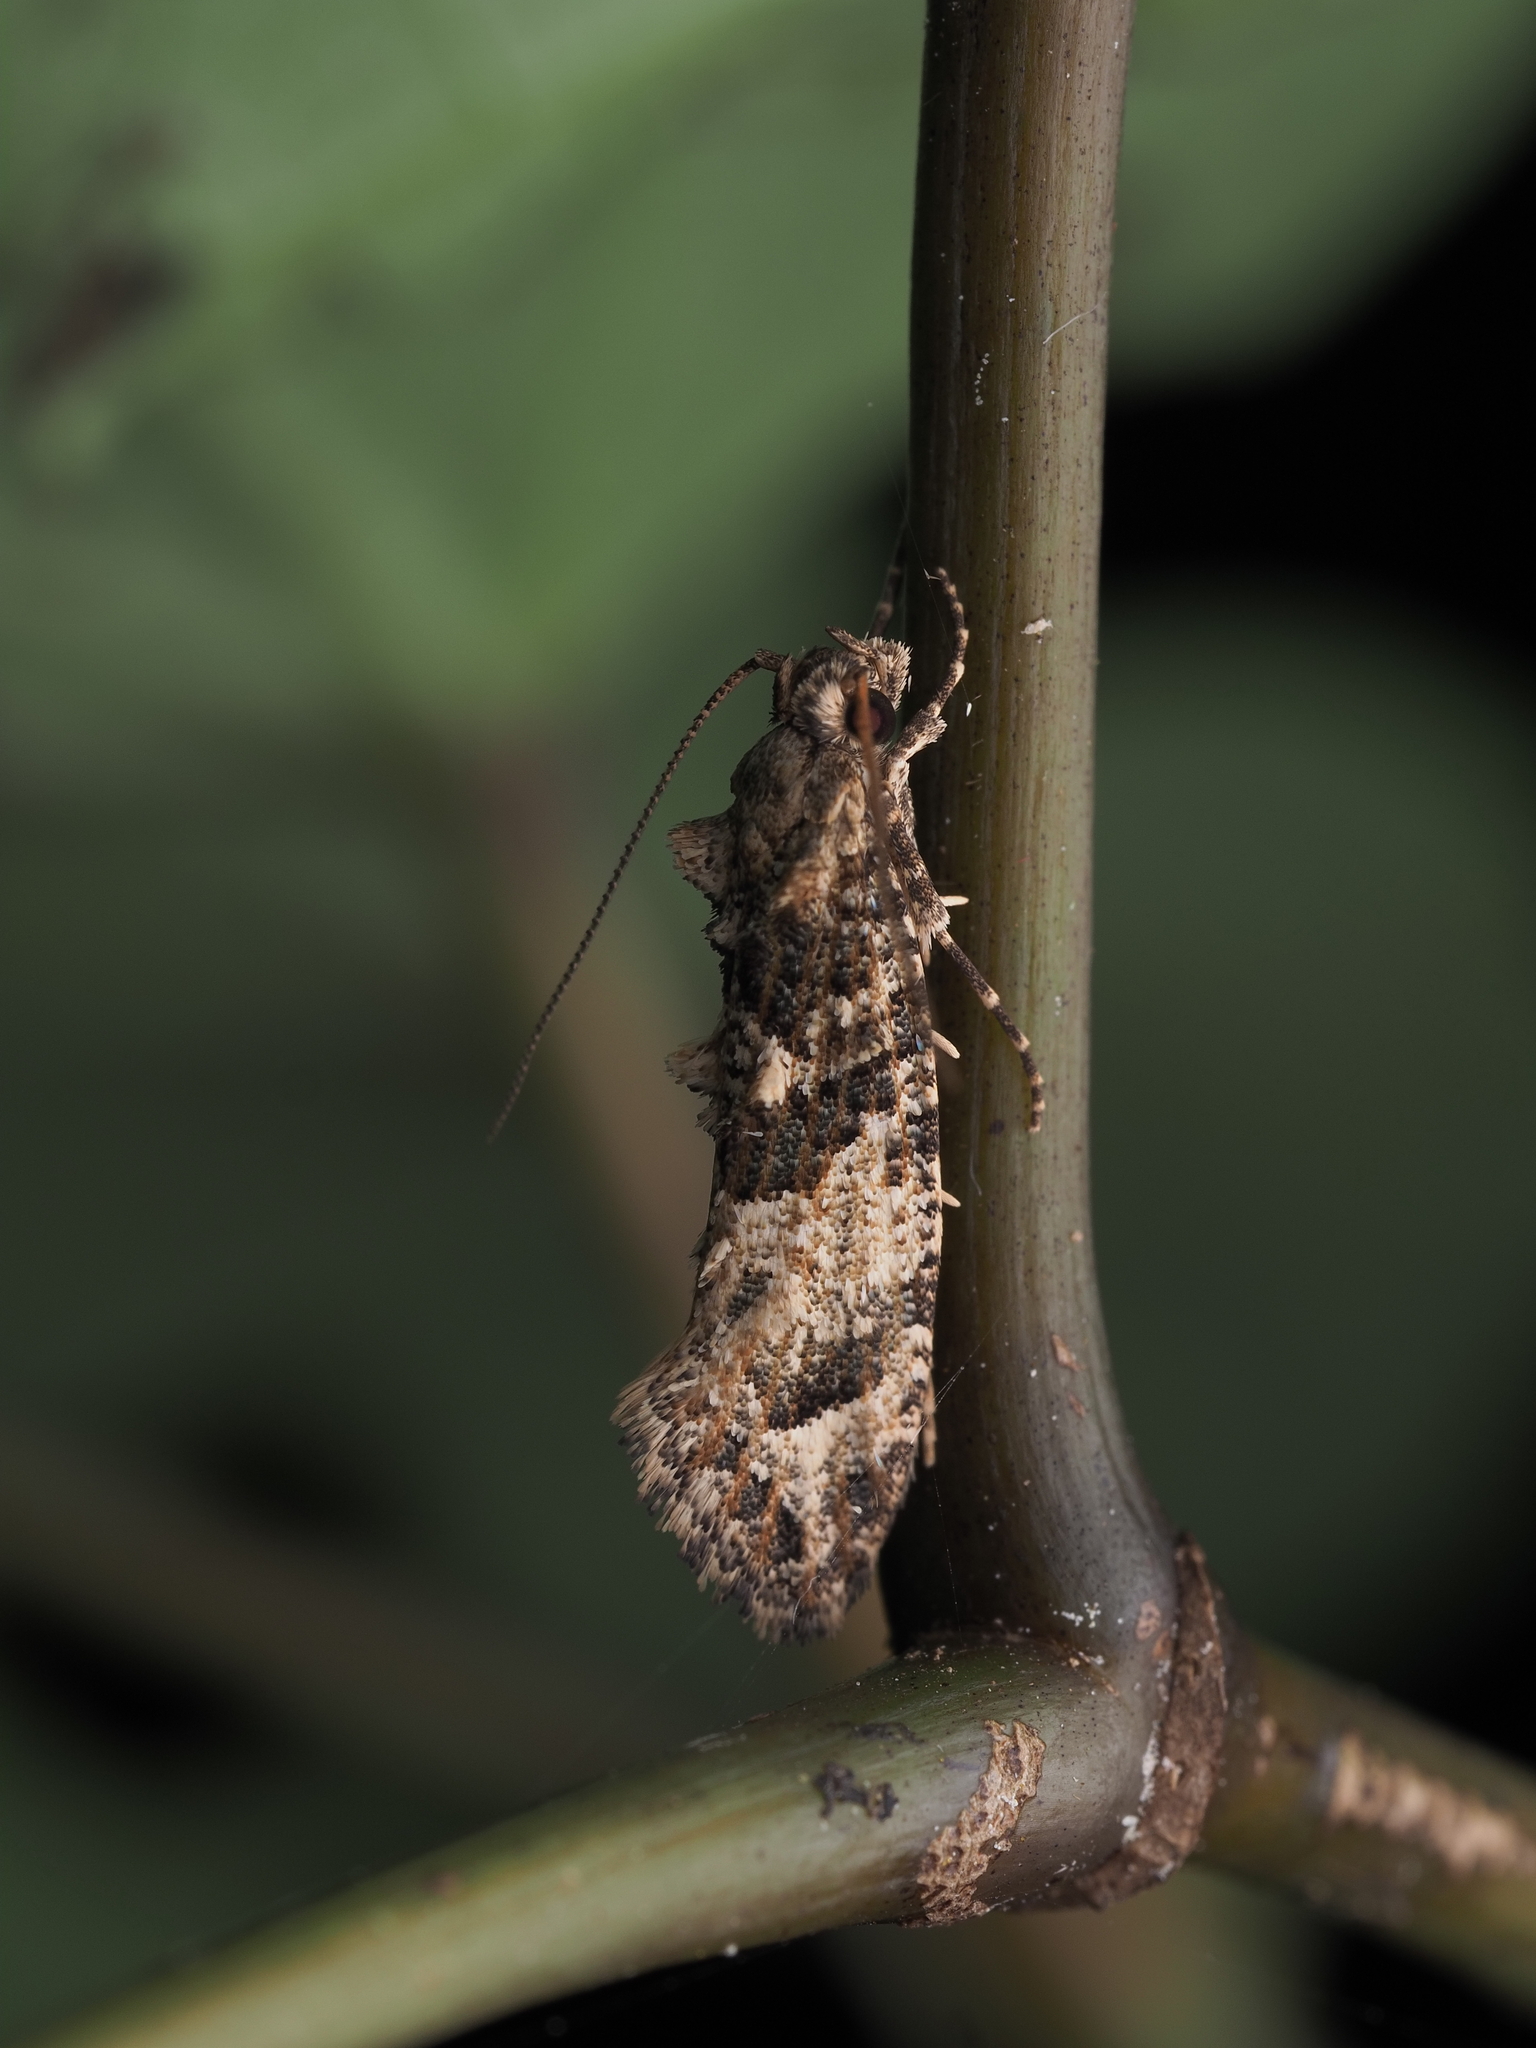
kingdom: Animalia
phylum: Arthropoda
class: Insecta
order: Lepidoptera
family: Tineidae
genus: Lysiphragma
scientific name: Lysiphragma epixyla
